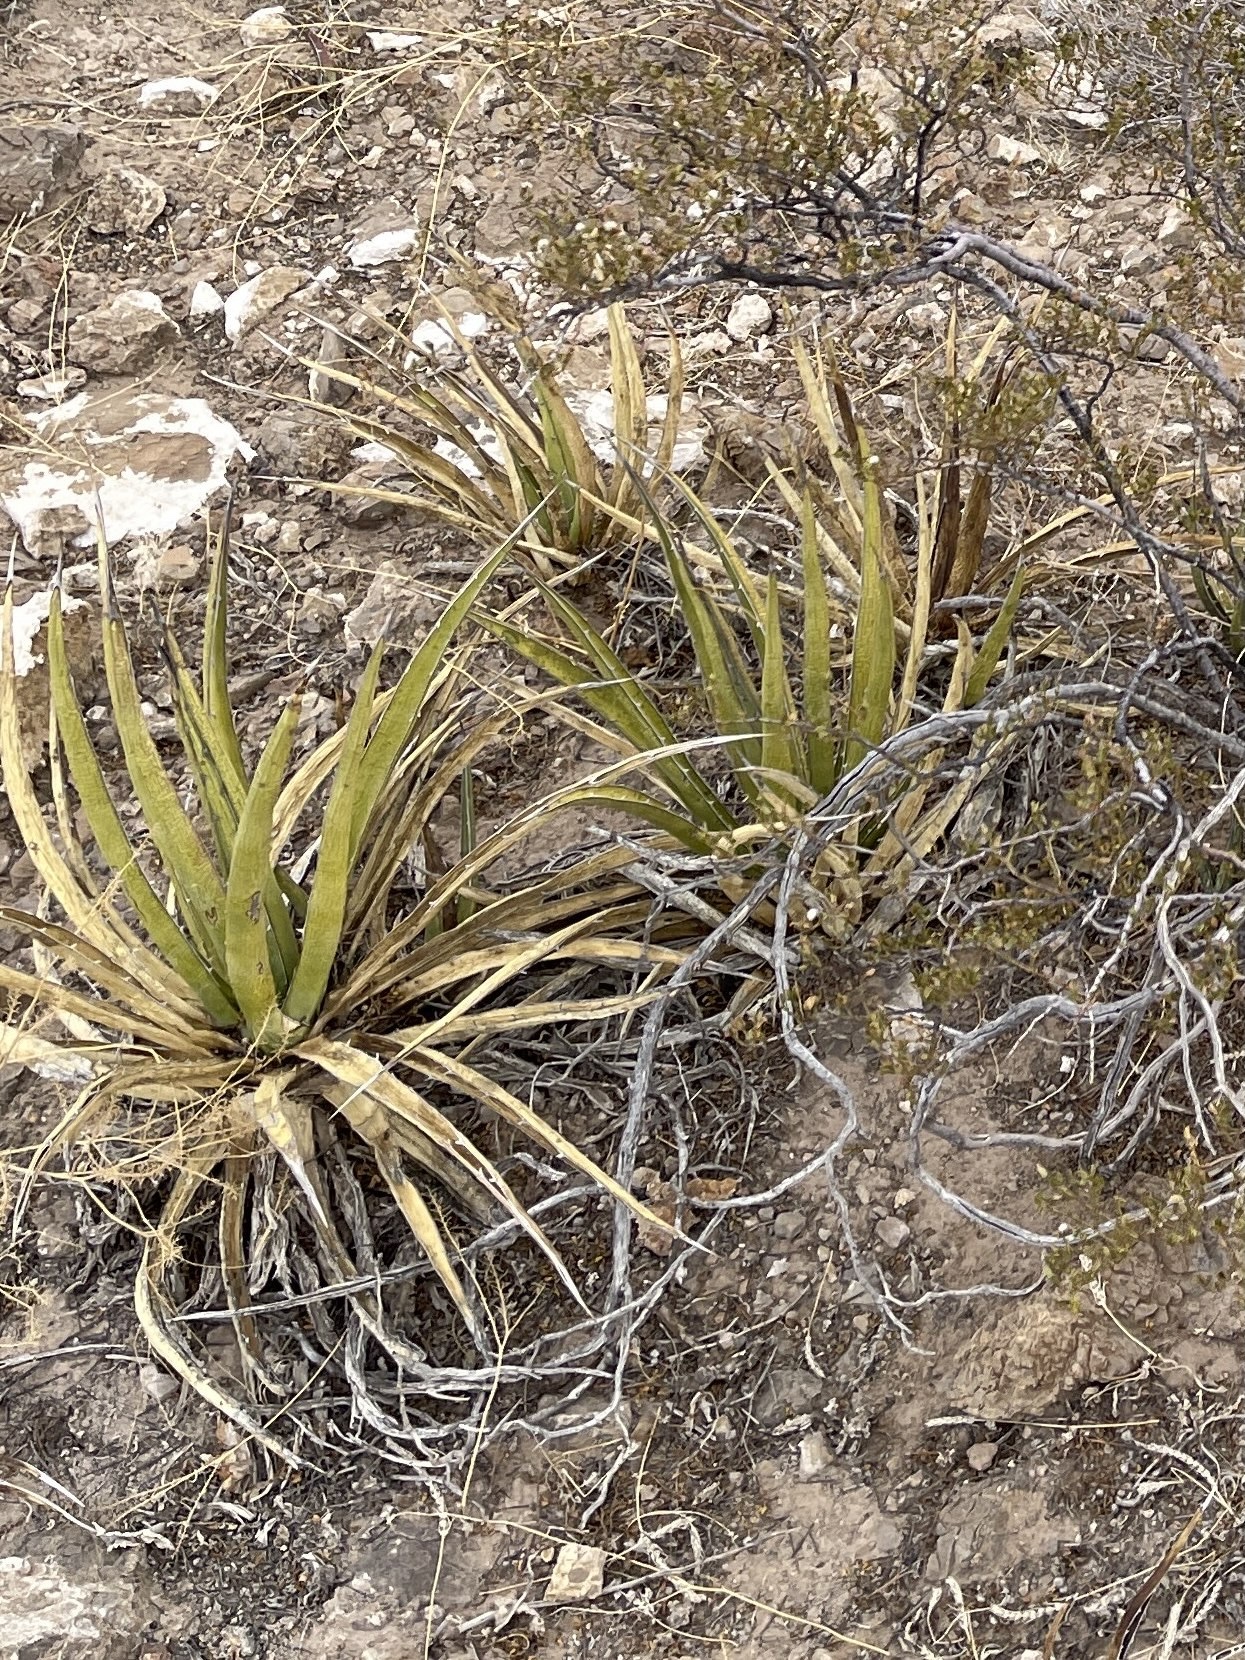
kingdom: Plantae
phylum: Tracheophyta
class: Liliopsida
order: Asparagales
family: Asparagaceae
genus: Agave
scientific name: Agave lechuguilla
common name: Lecheguilla agave
